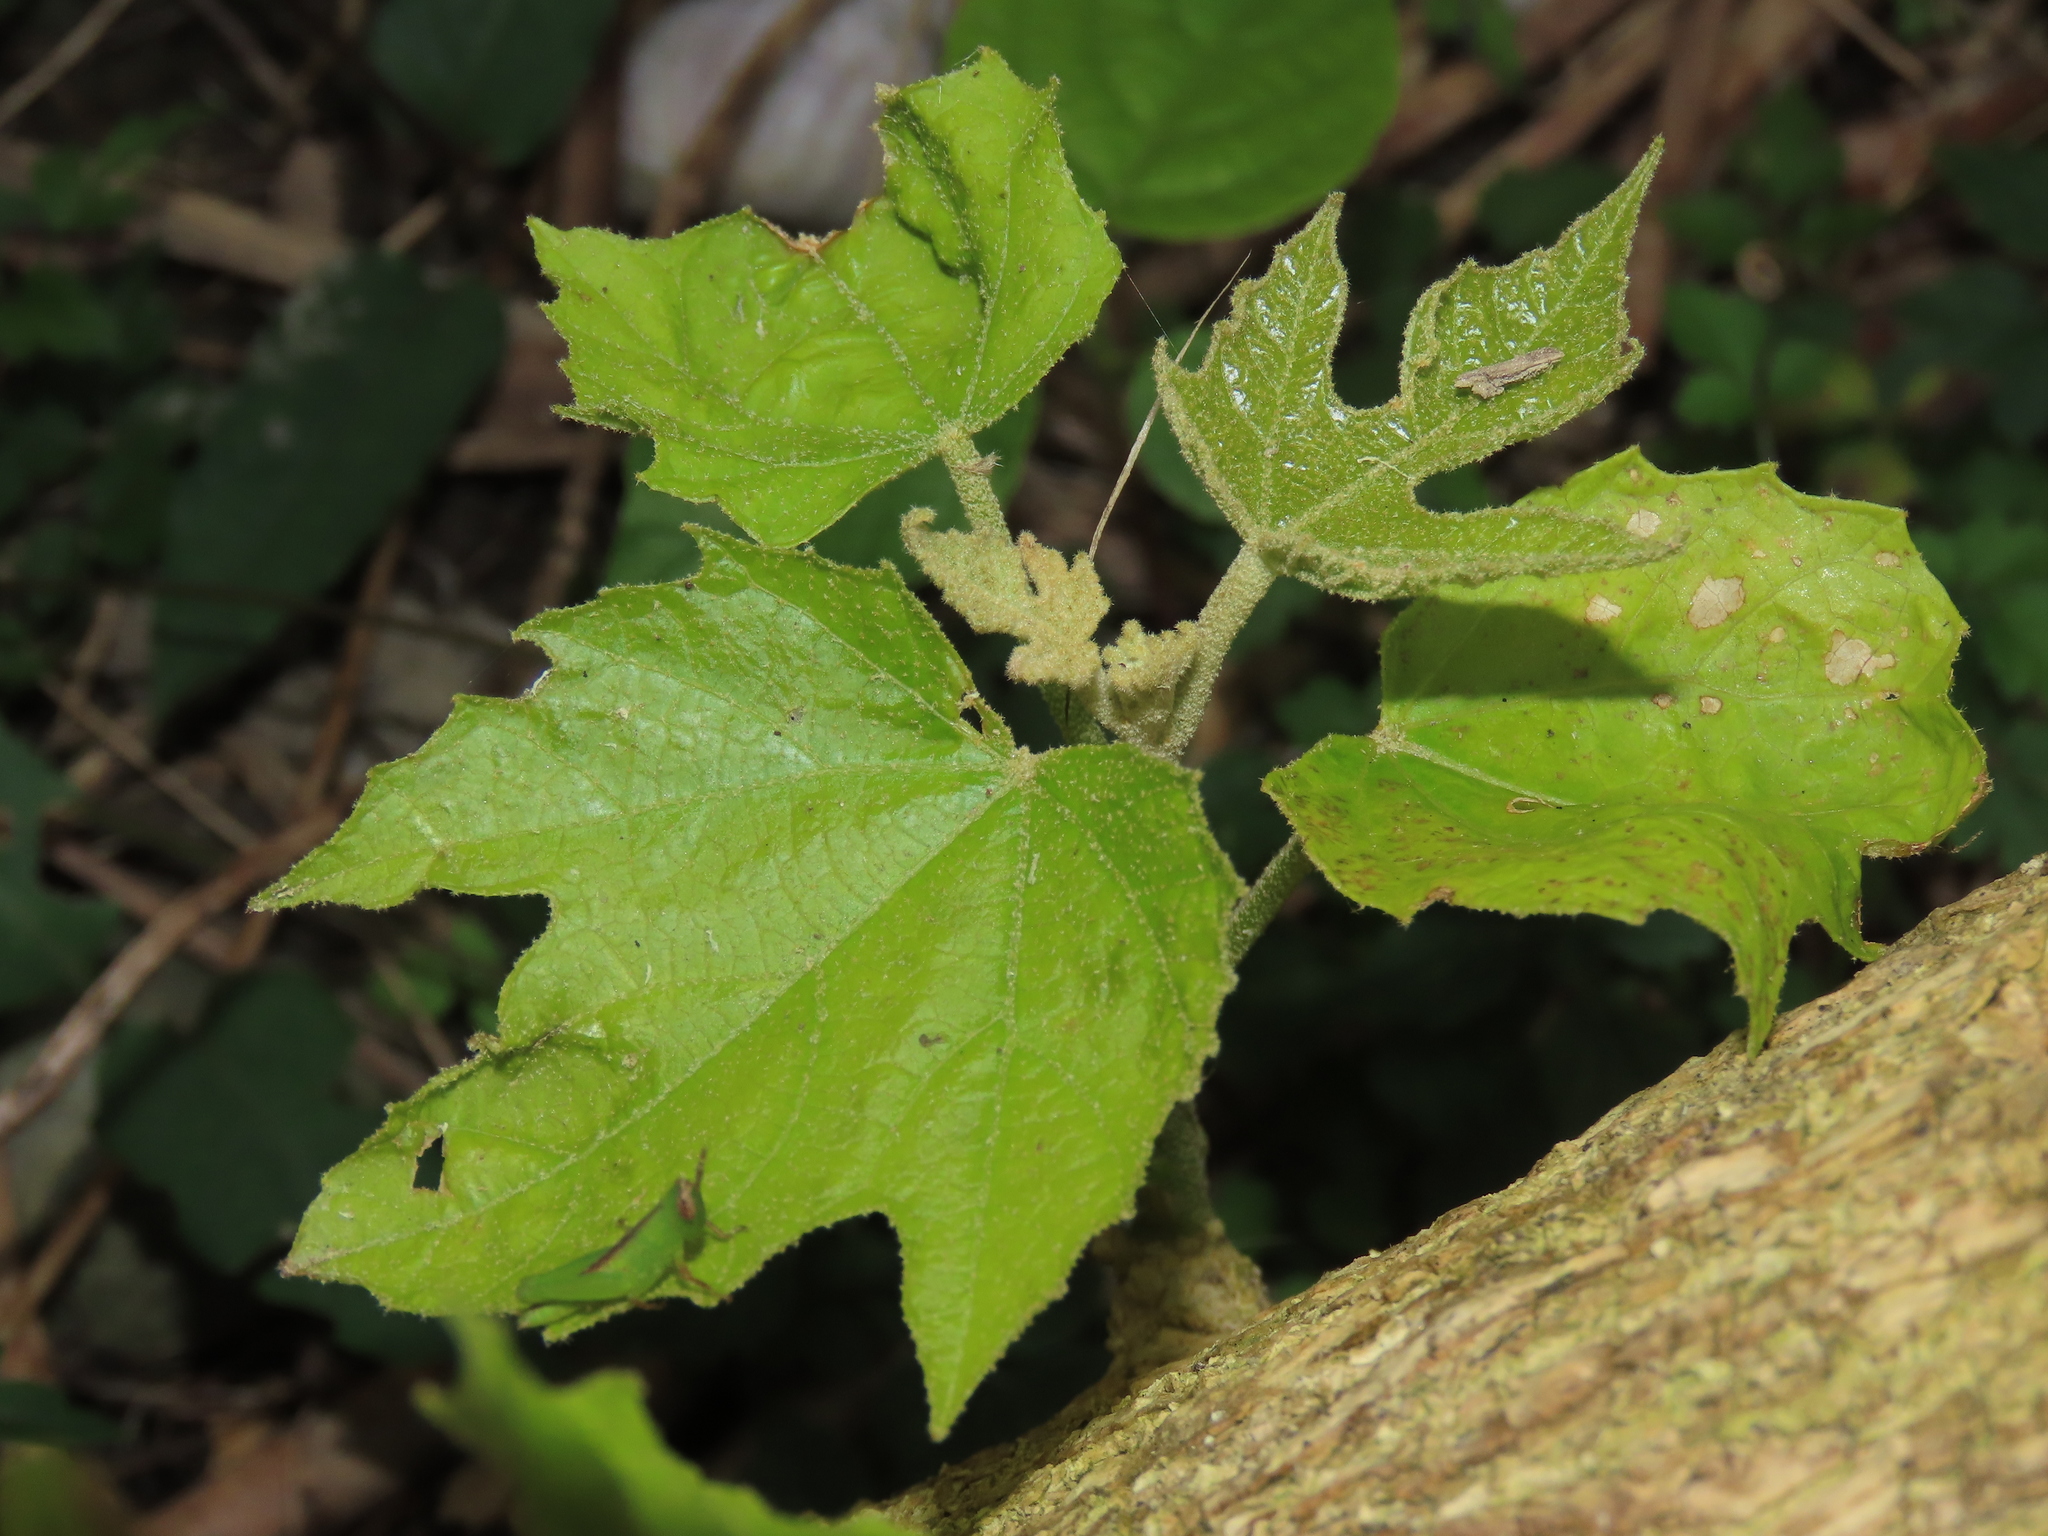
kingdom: Plantae
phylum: Tracheophyta
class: Magnoliopsida
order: Malpighiales
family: Euphorbiaceae
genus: Melanolepis
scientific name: Melanolepis multiglandulosa
